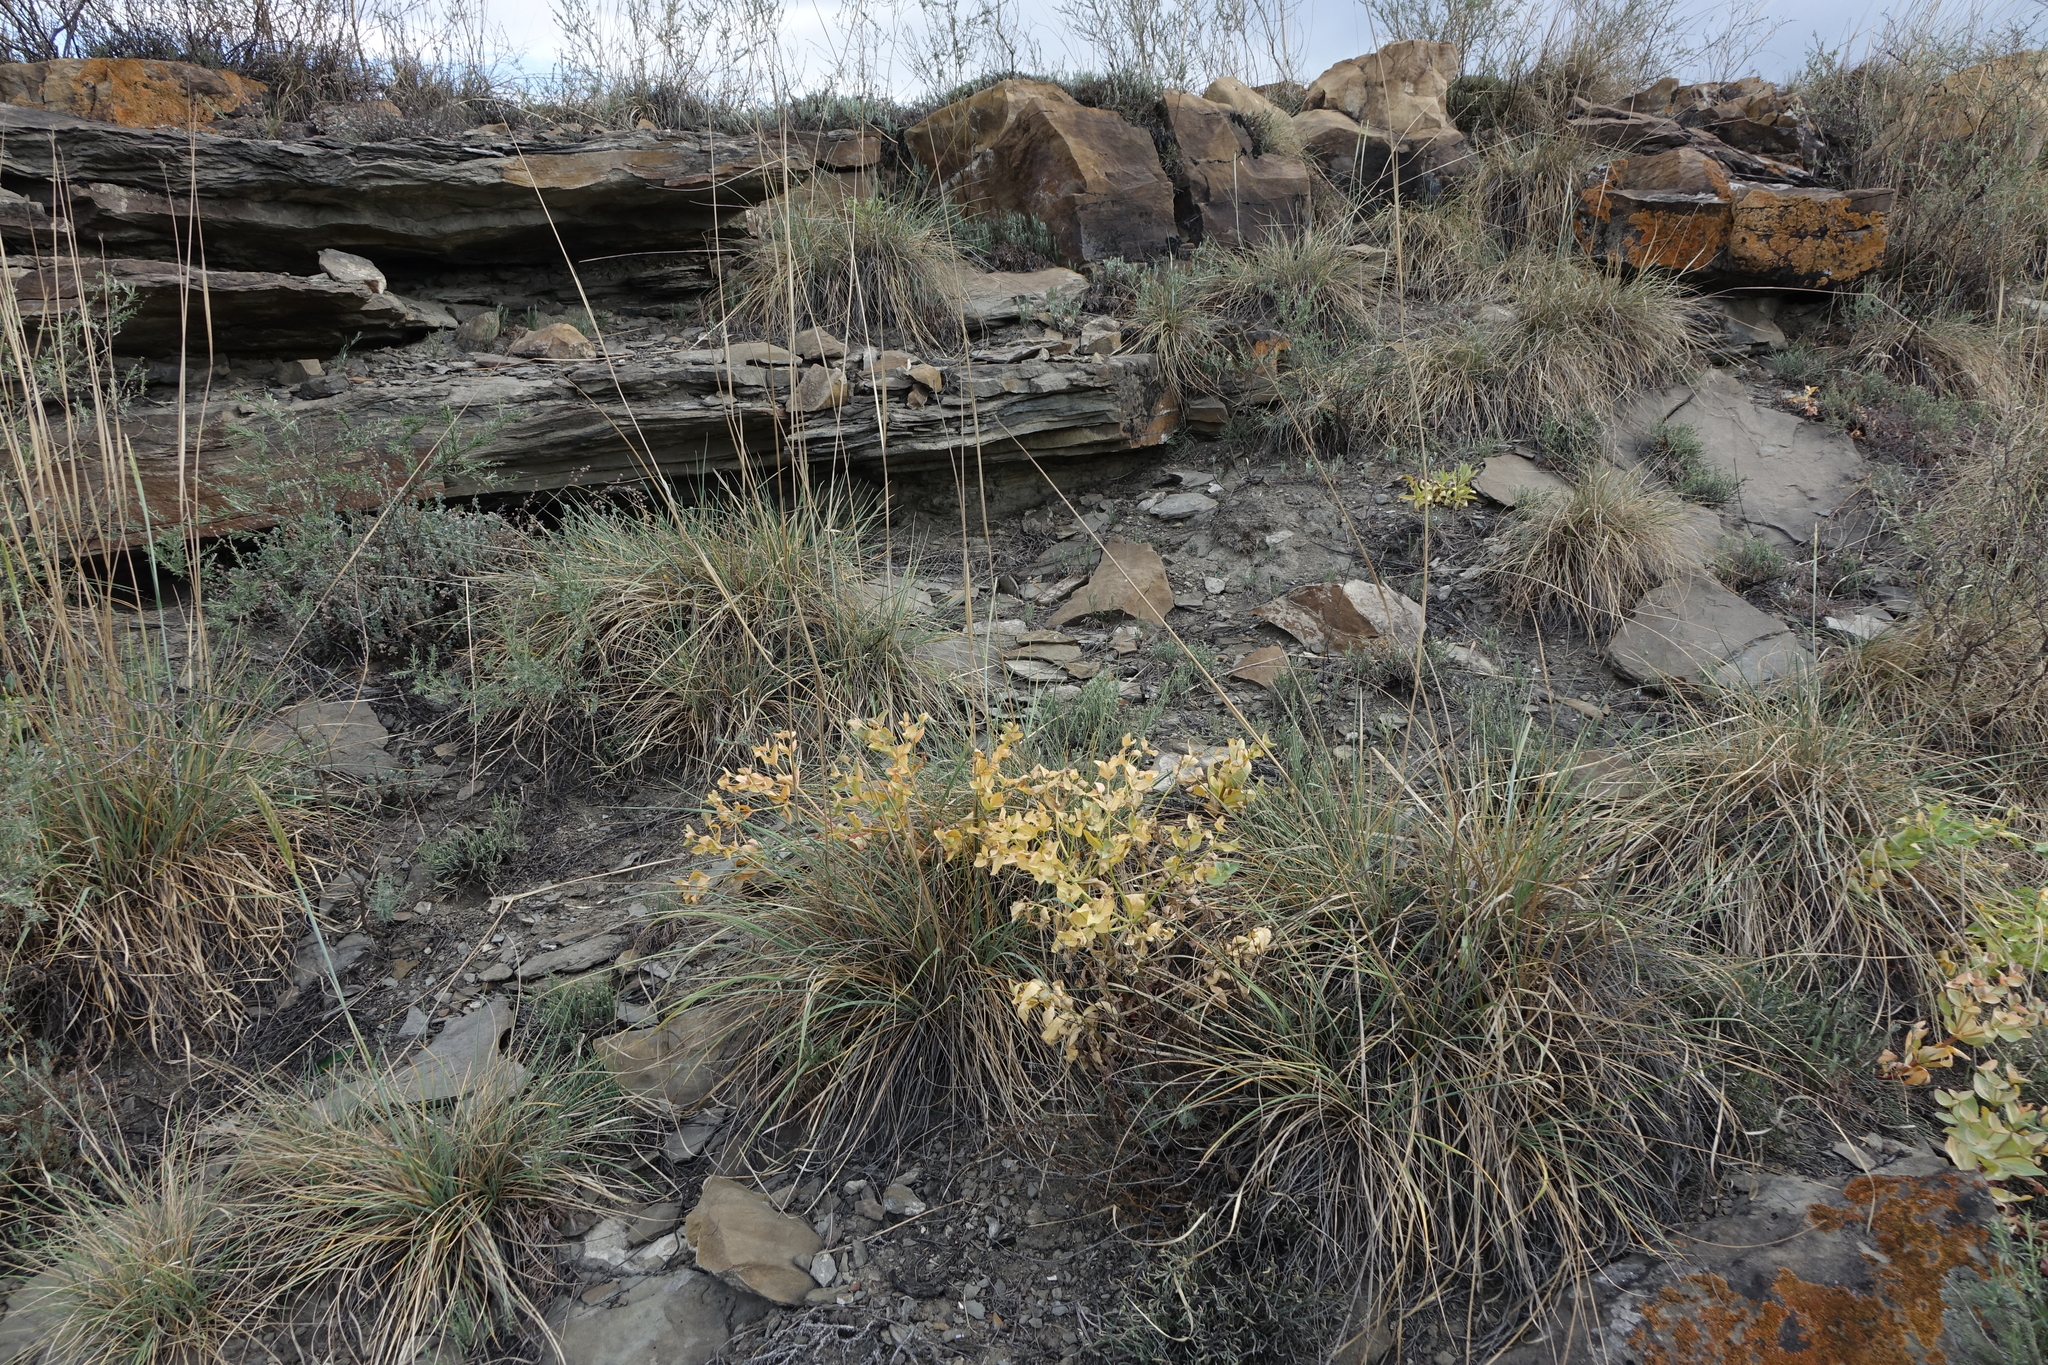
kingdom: Plantae
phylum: Tracheophyta
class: Magnoliopsida
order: Malpighiales
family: Euphorbiaceae
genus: Euphorbia
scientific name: Euphorbia mongolica
